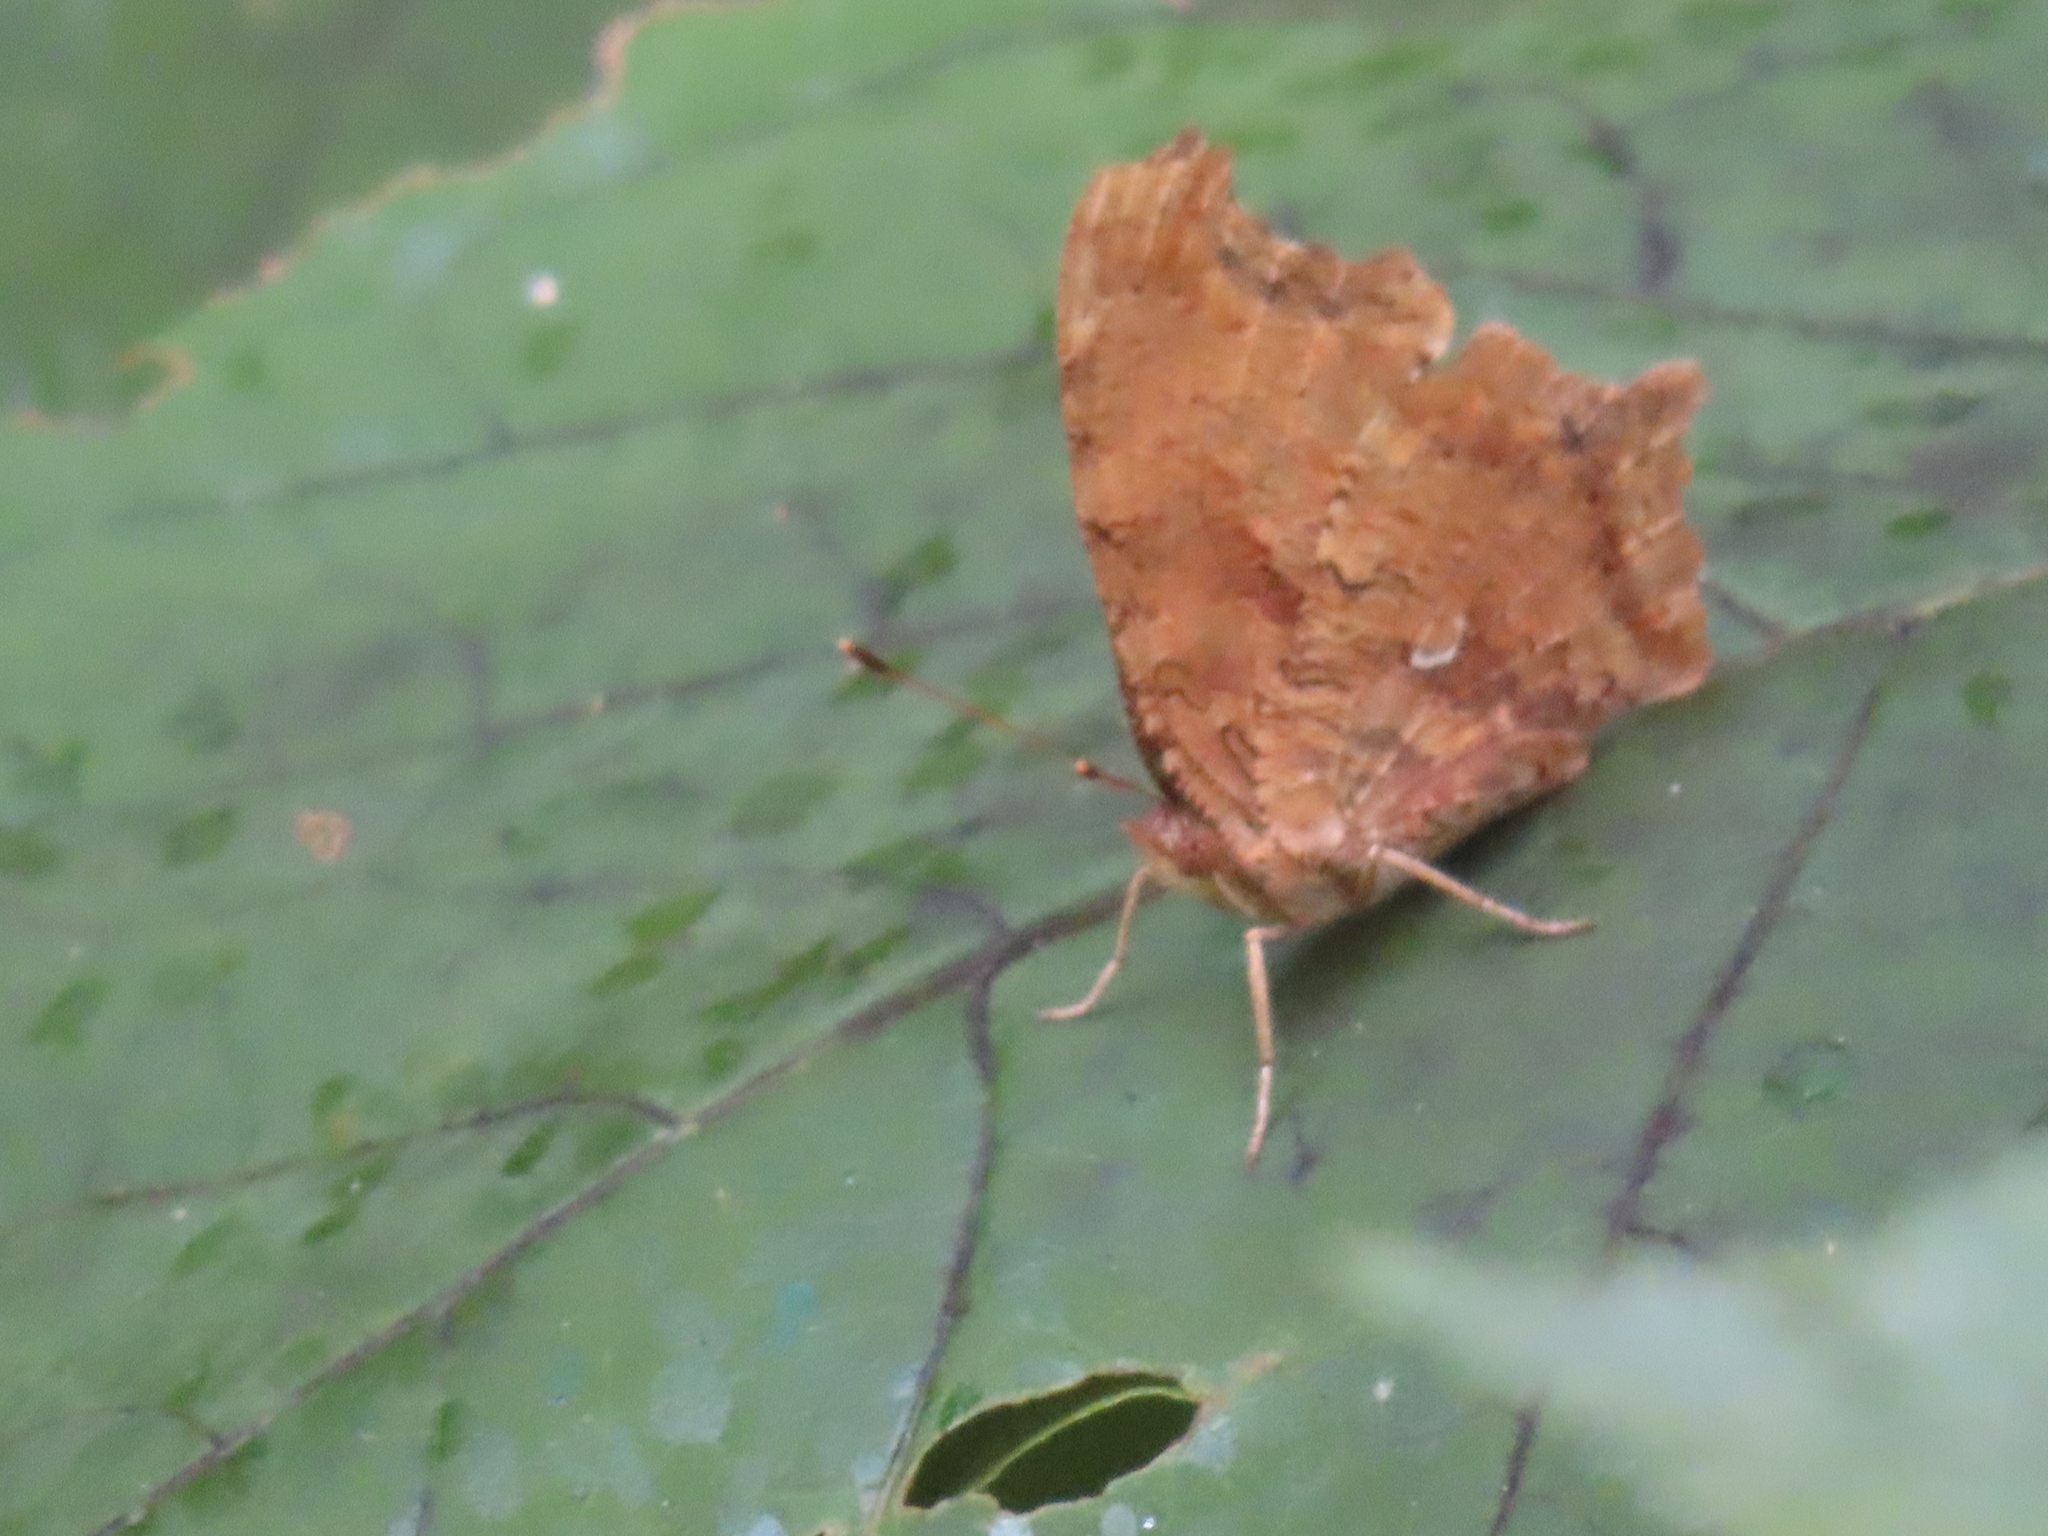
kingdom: Animalia
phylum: Arthropoda
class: Insecta
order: Lepidoptera
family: Nymphalidae
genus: Polygonia
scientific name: Polygonia comma
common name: Eastern comma
